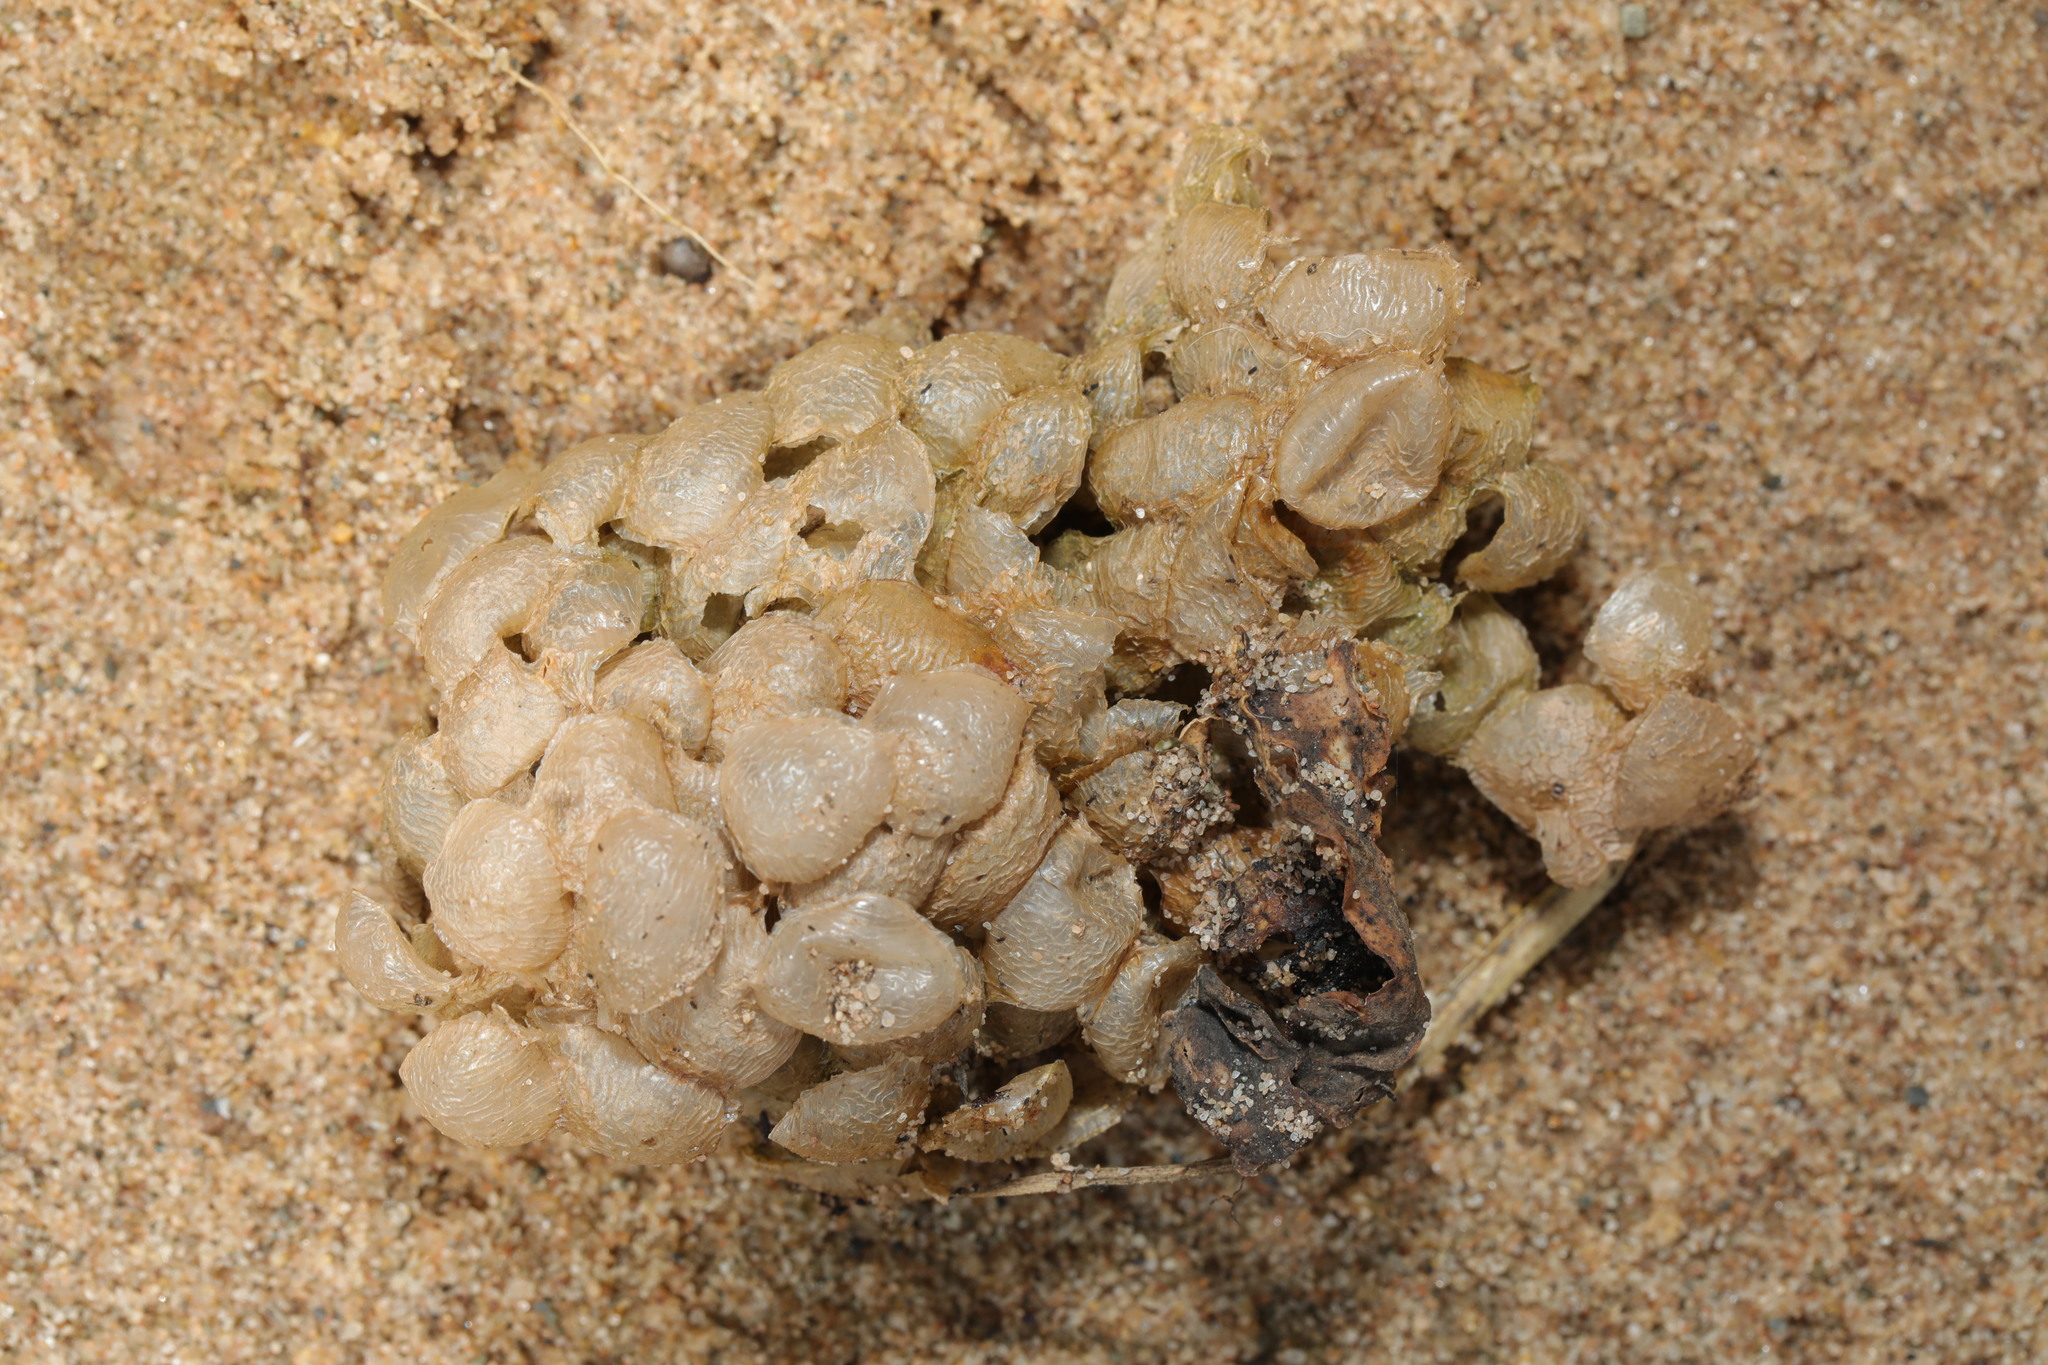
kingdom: Animalia
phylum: Mollusca
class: Gastropoda
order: Neogastropoda
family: Buccinidae
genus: Buccinum
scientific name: Buccinum undatum
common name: Common whelk
